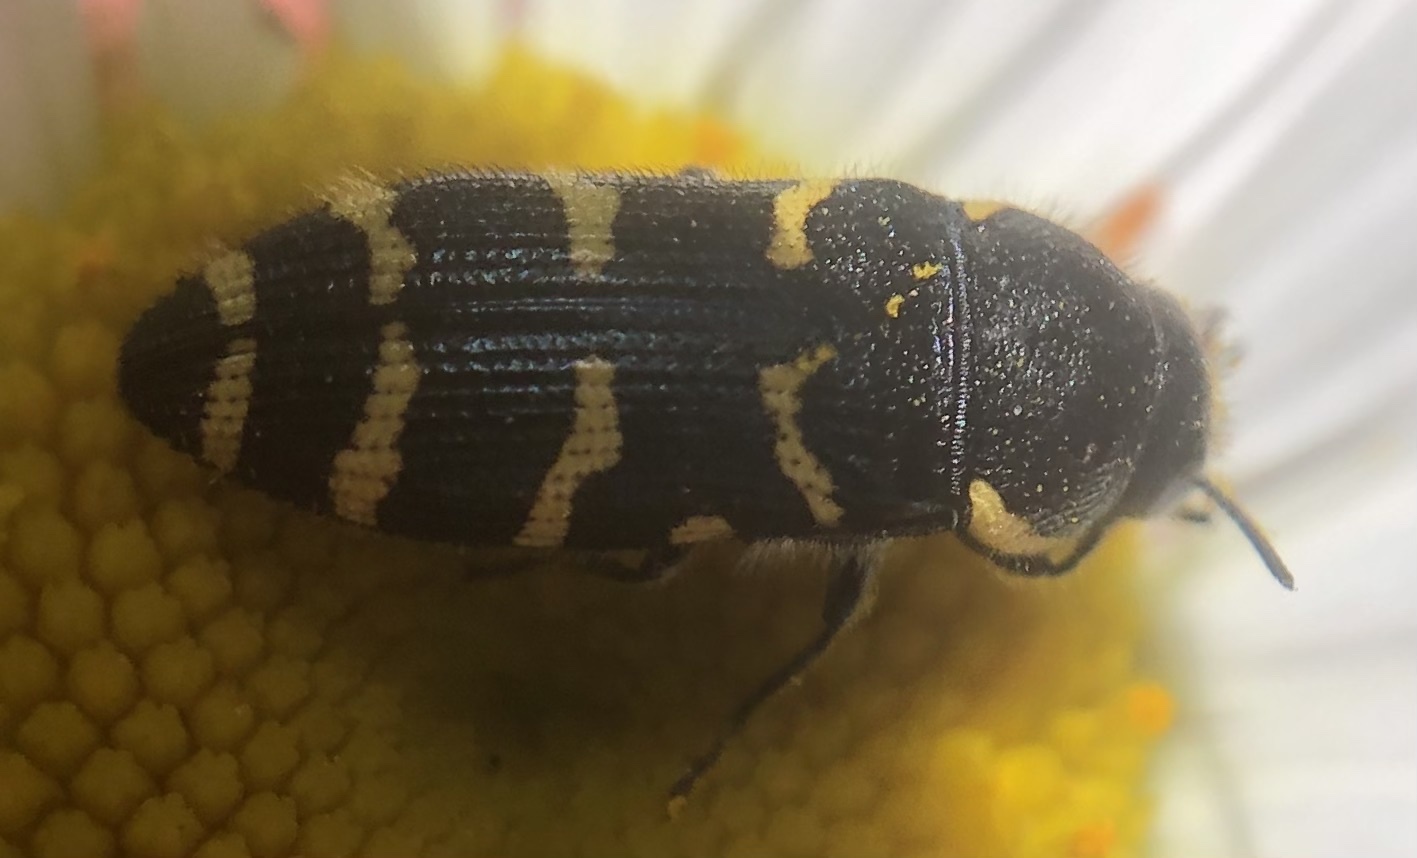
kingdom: Animalia
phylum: Arthropoda
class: Insecta
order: Coleoptera
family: Buprestidae
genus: Acmaeodera
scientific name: Acmaeodera quadrifasciata
